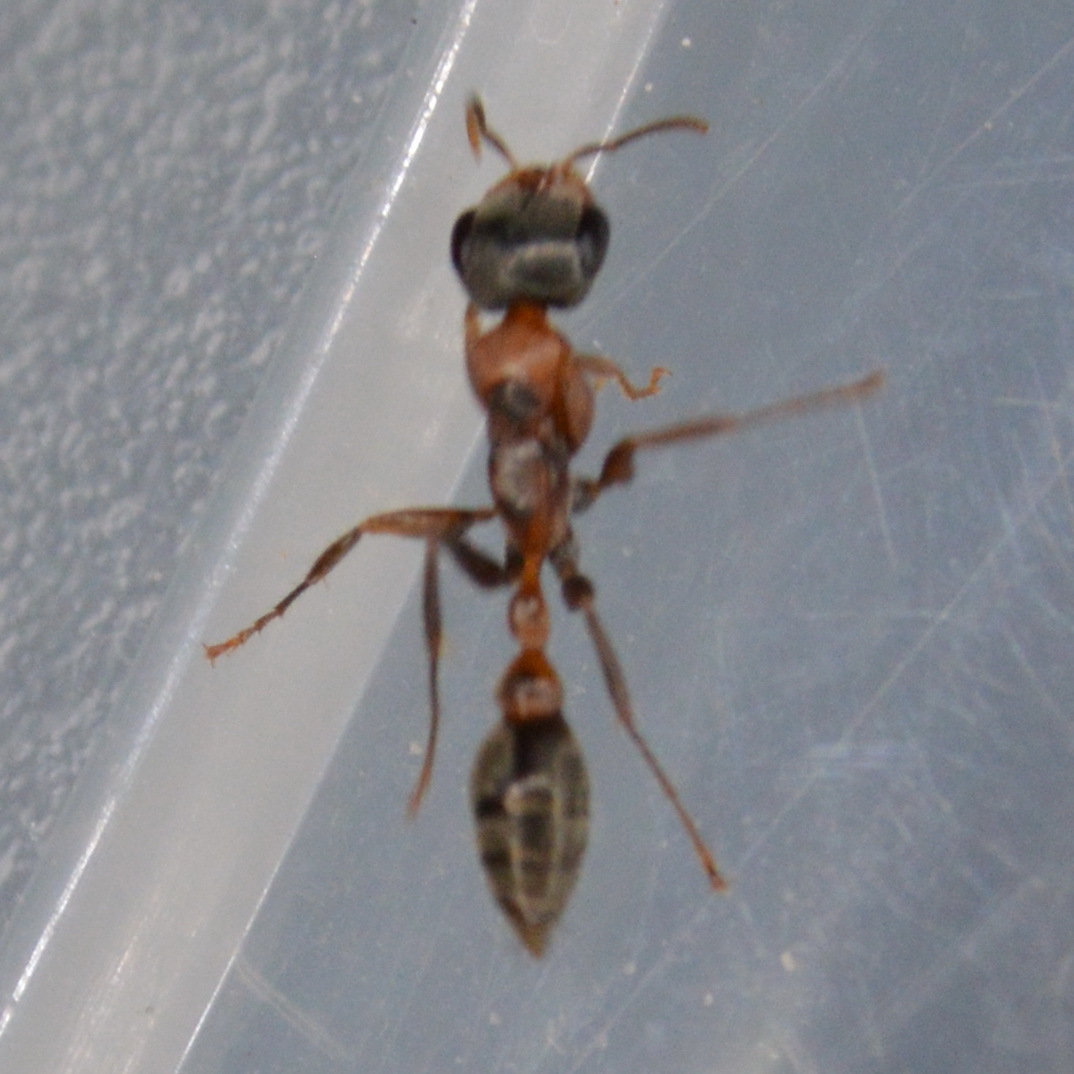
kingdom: Animalia
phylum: Arthropoda
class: Insecta
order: Hymenoptera
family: Formicidae
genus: Pseudomyrmex
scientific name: Pseudomyrmex gracilis
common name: Graceful twig ant
